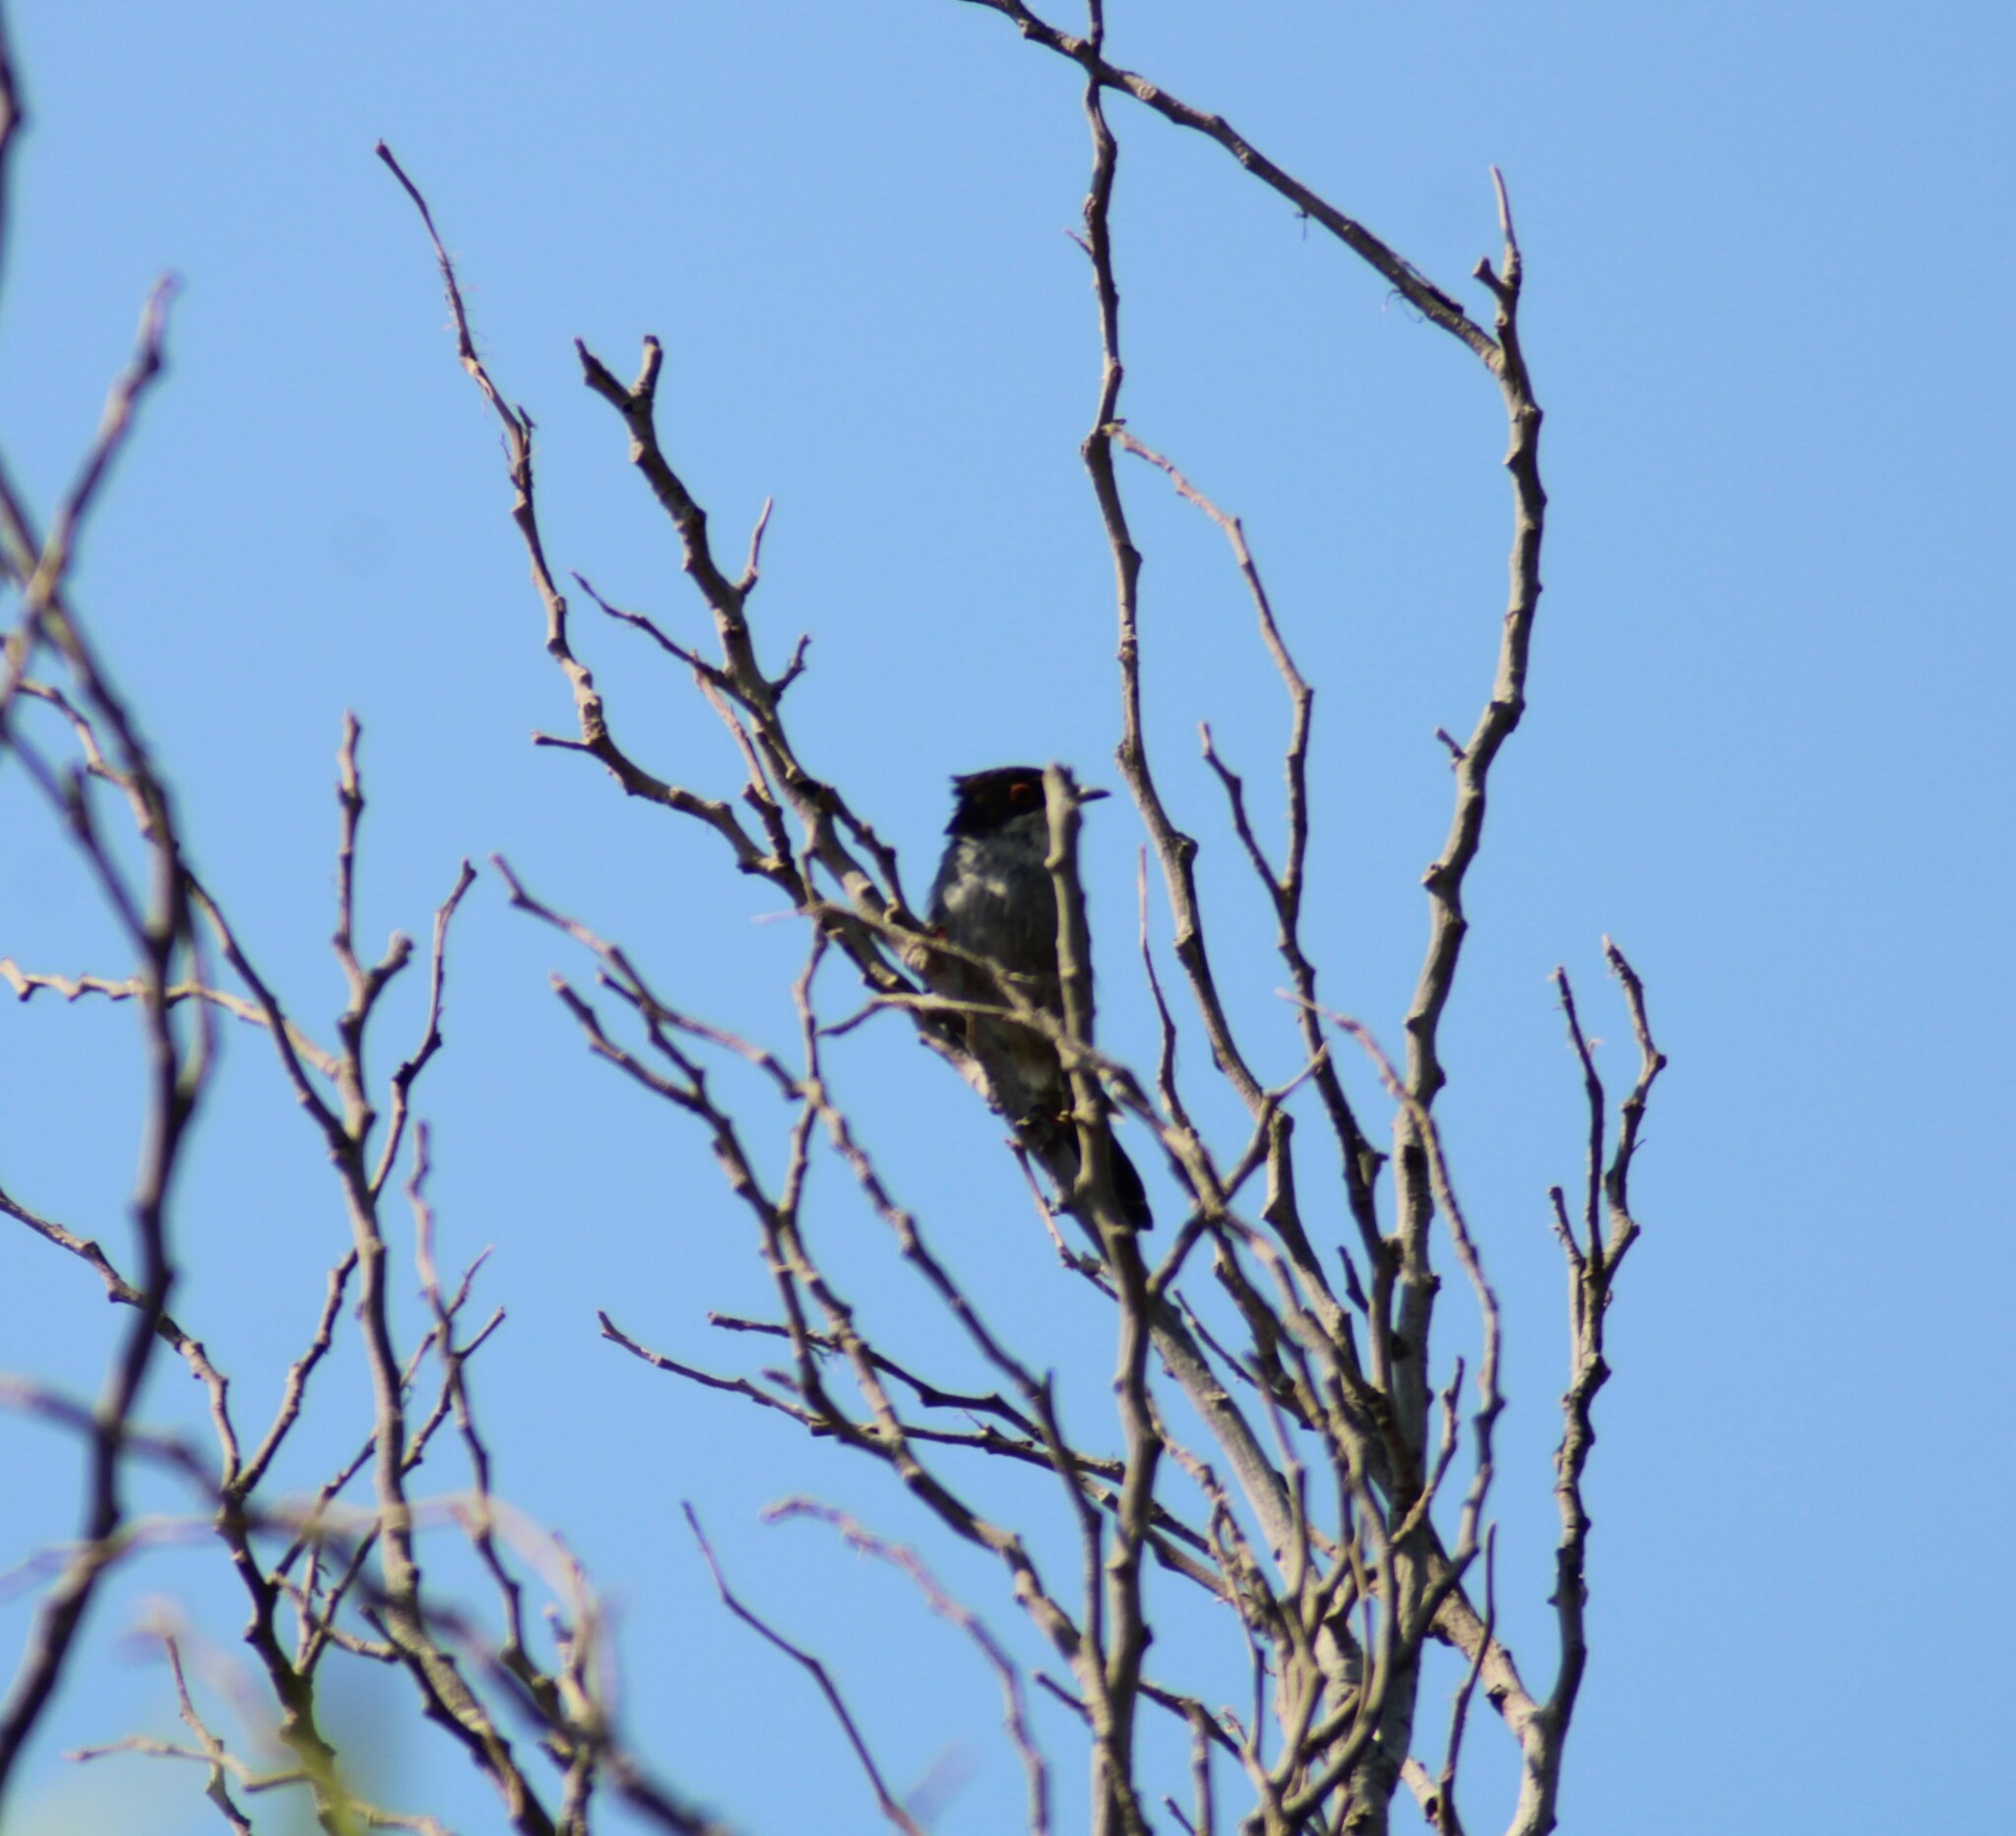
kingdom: Animalia
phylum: Chordata
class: Aves
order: Passeriformes
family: Sylviidae
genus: Curruca
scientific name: Curruca melanocephala
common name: Sardinian warbler
